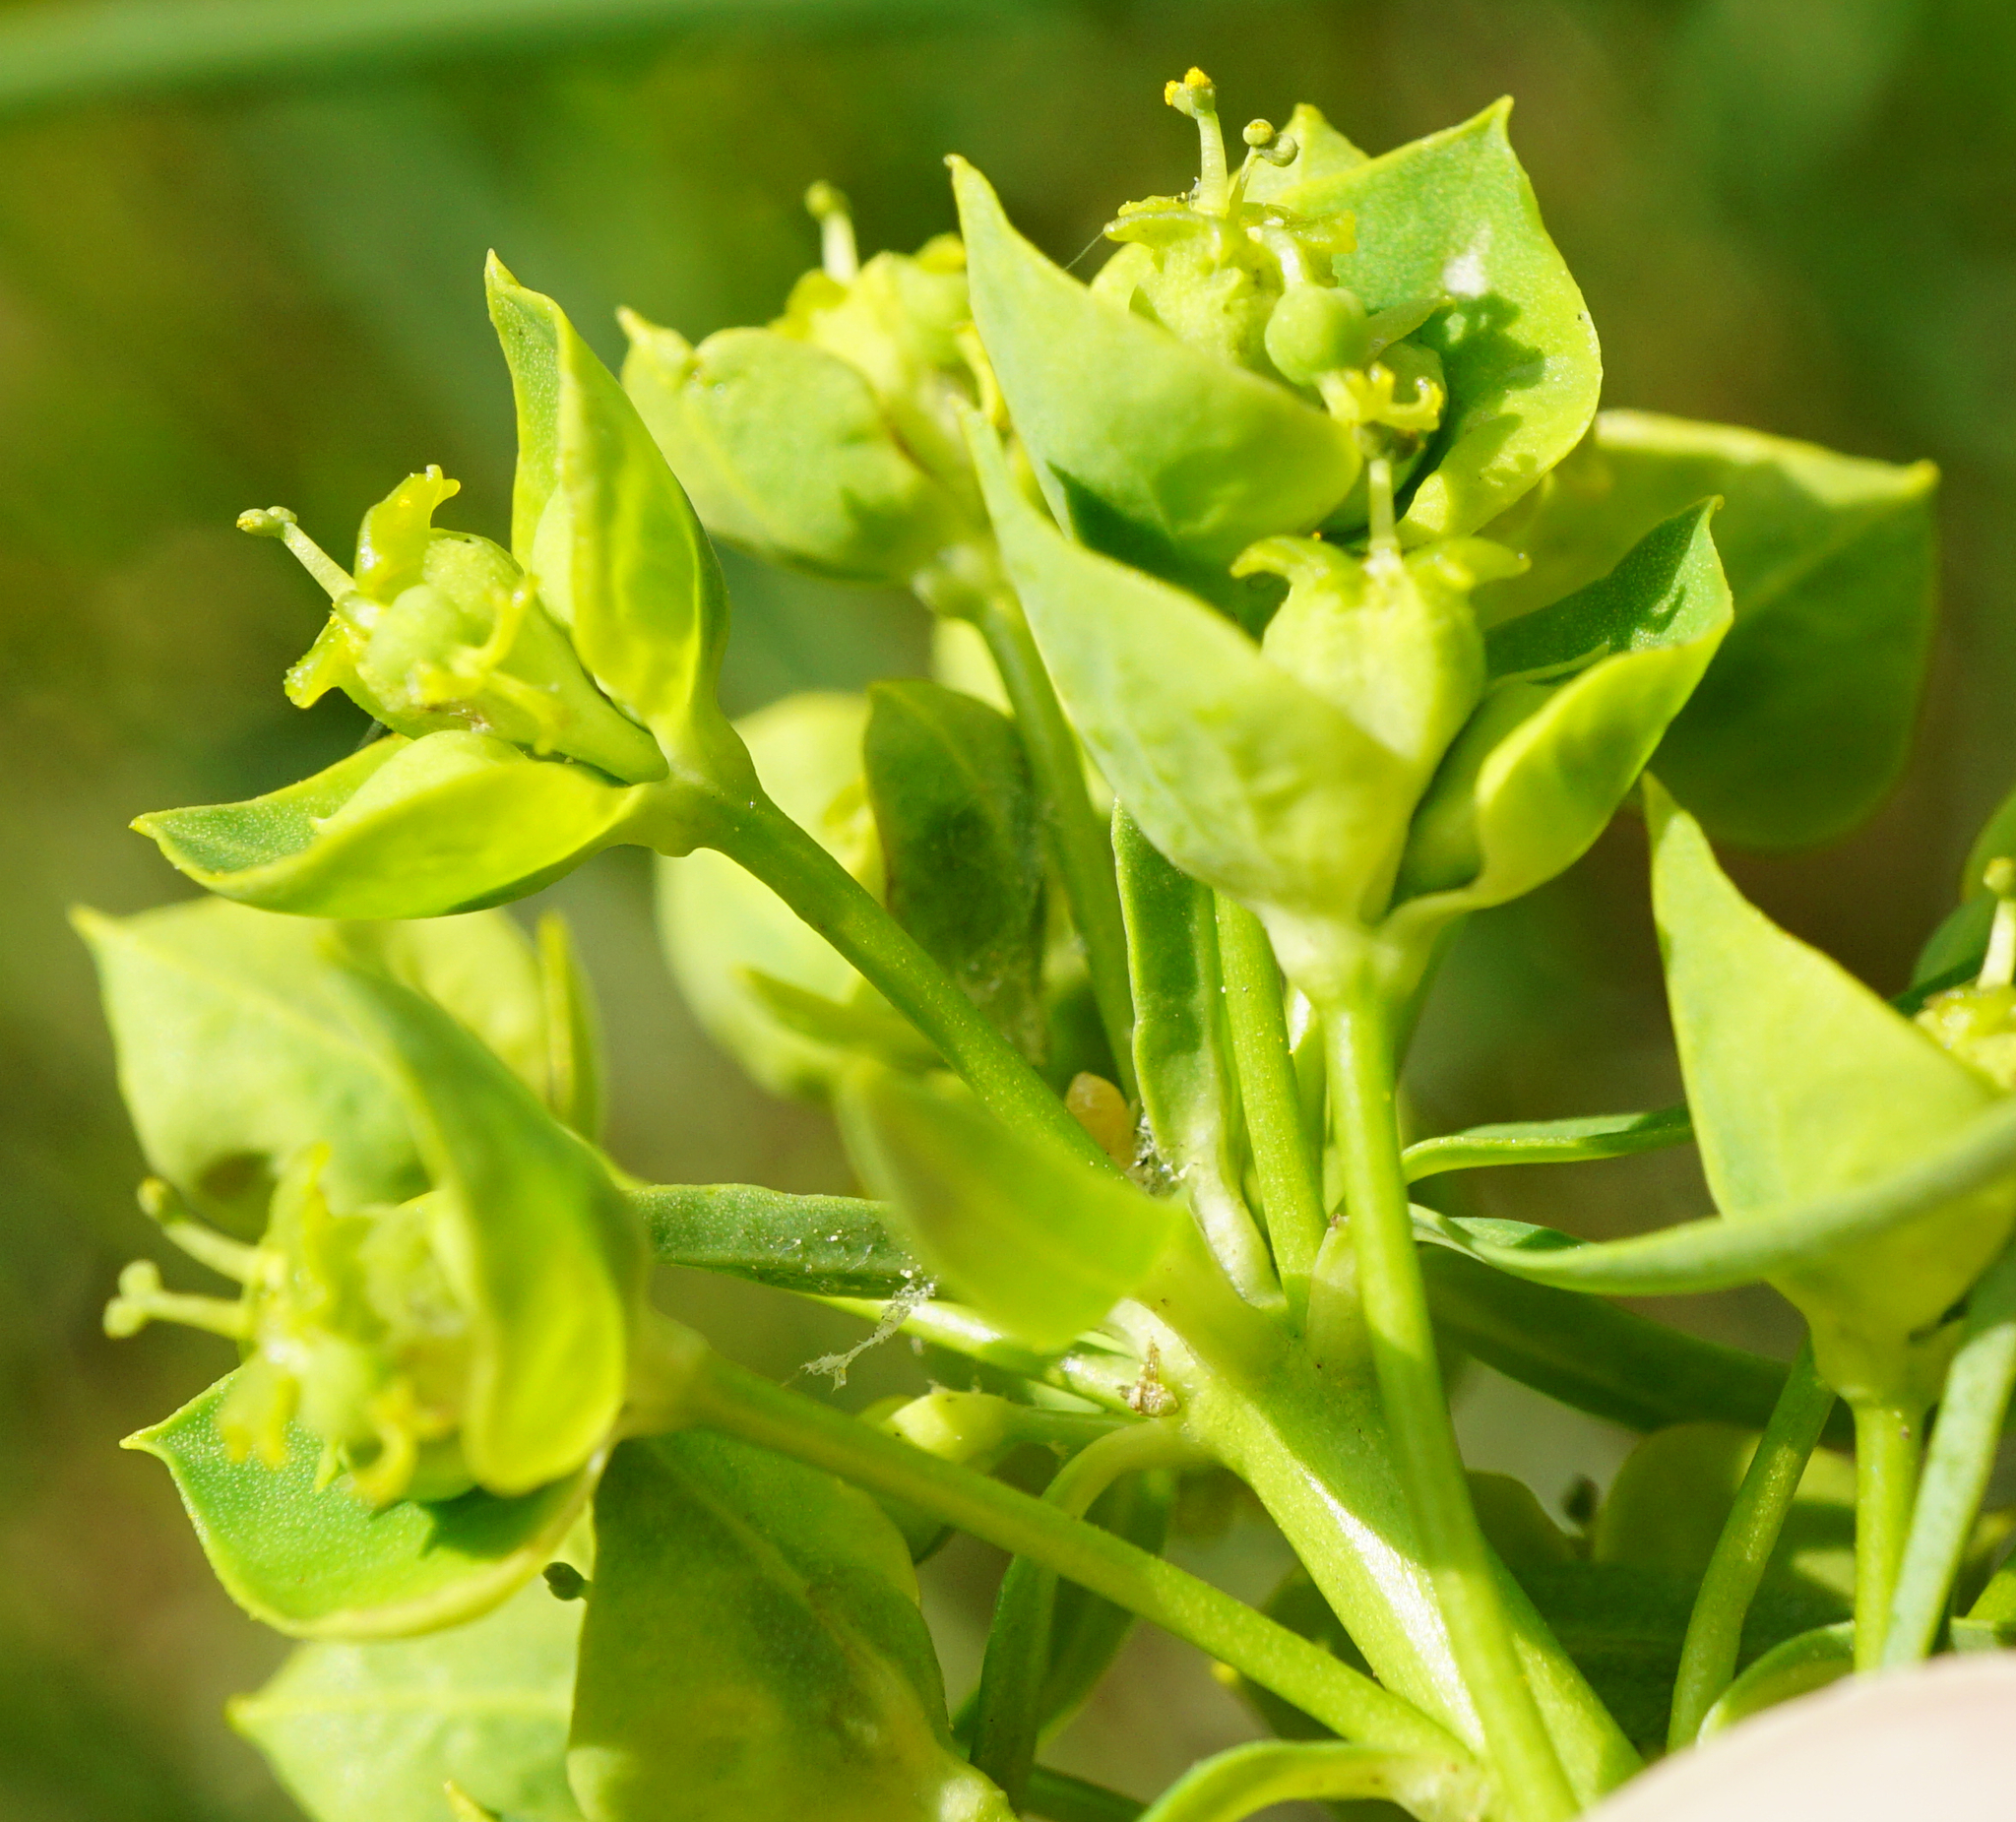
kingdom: Plantae
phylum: Tracheophyta
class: Magnoliopsida
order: Malpighiales
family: Euphorbiaceae
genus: Euphorbia
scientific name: Euphorbia esula
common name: Leafy spurge
